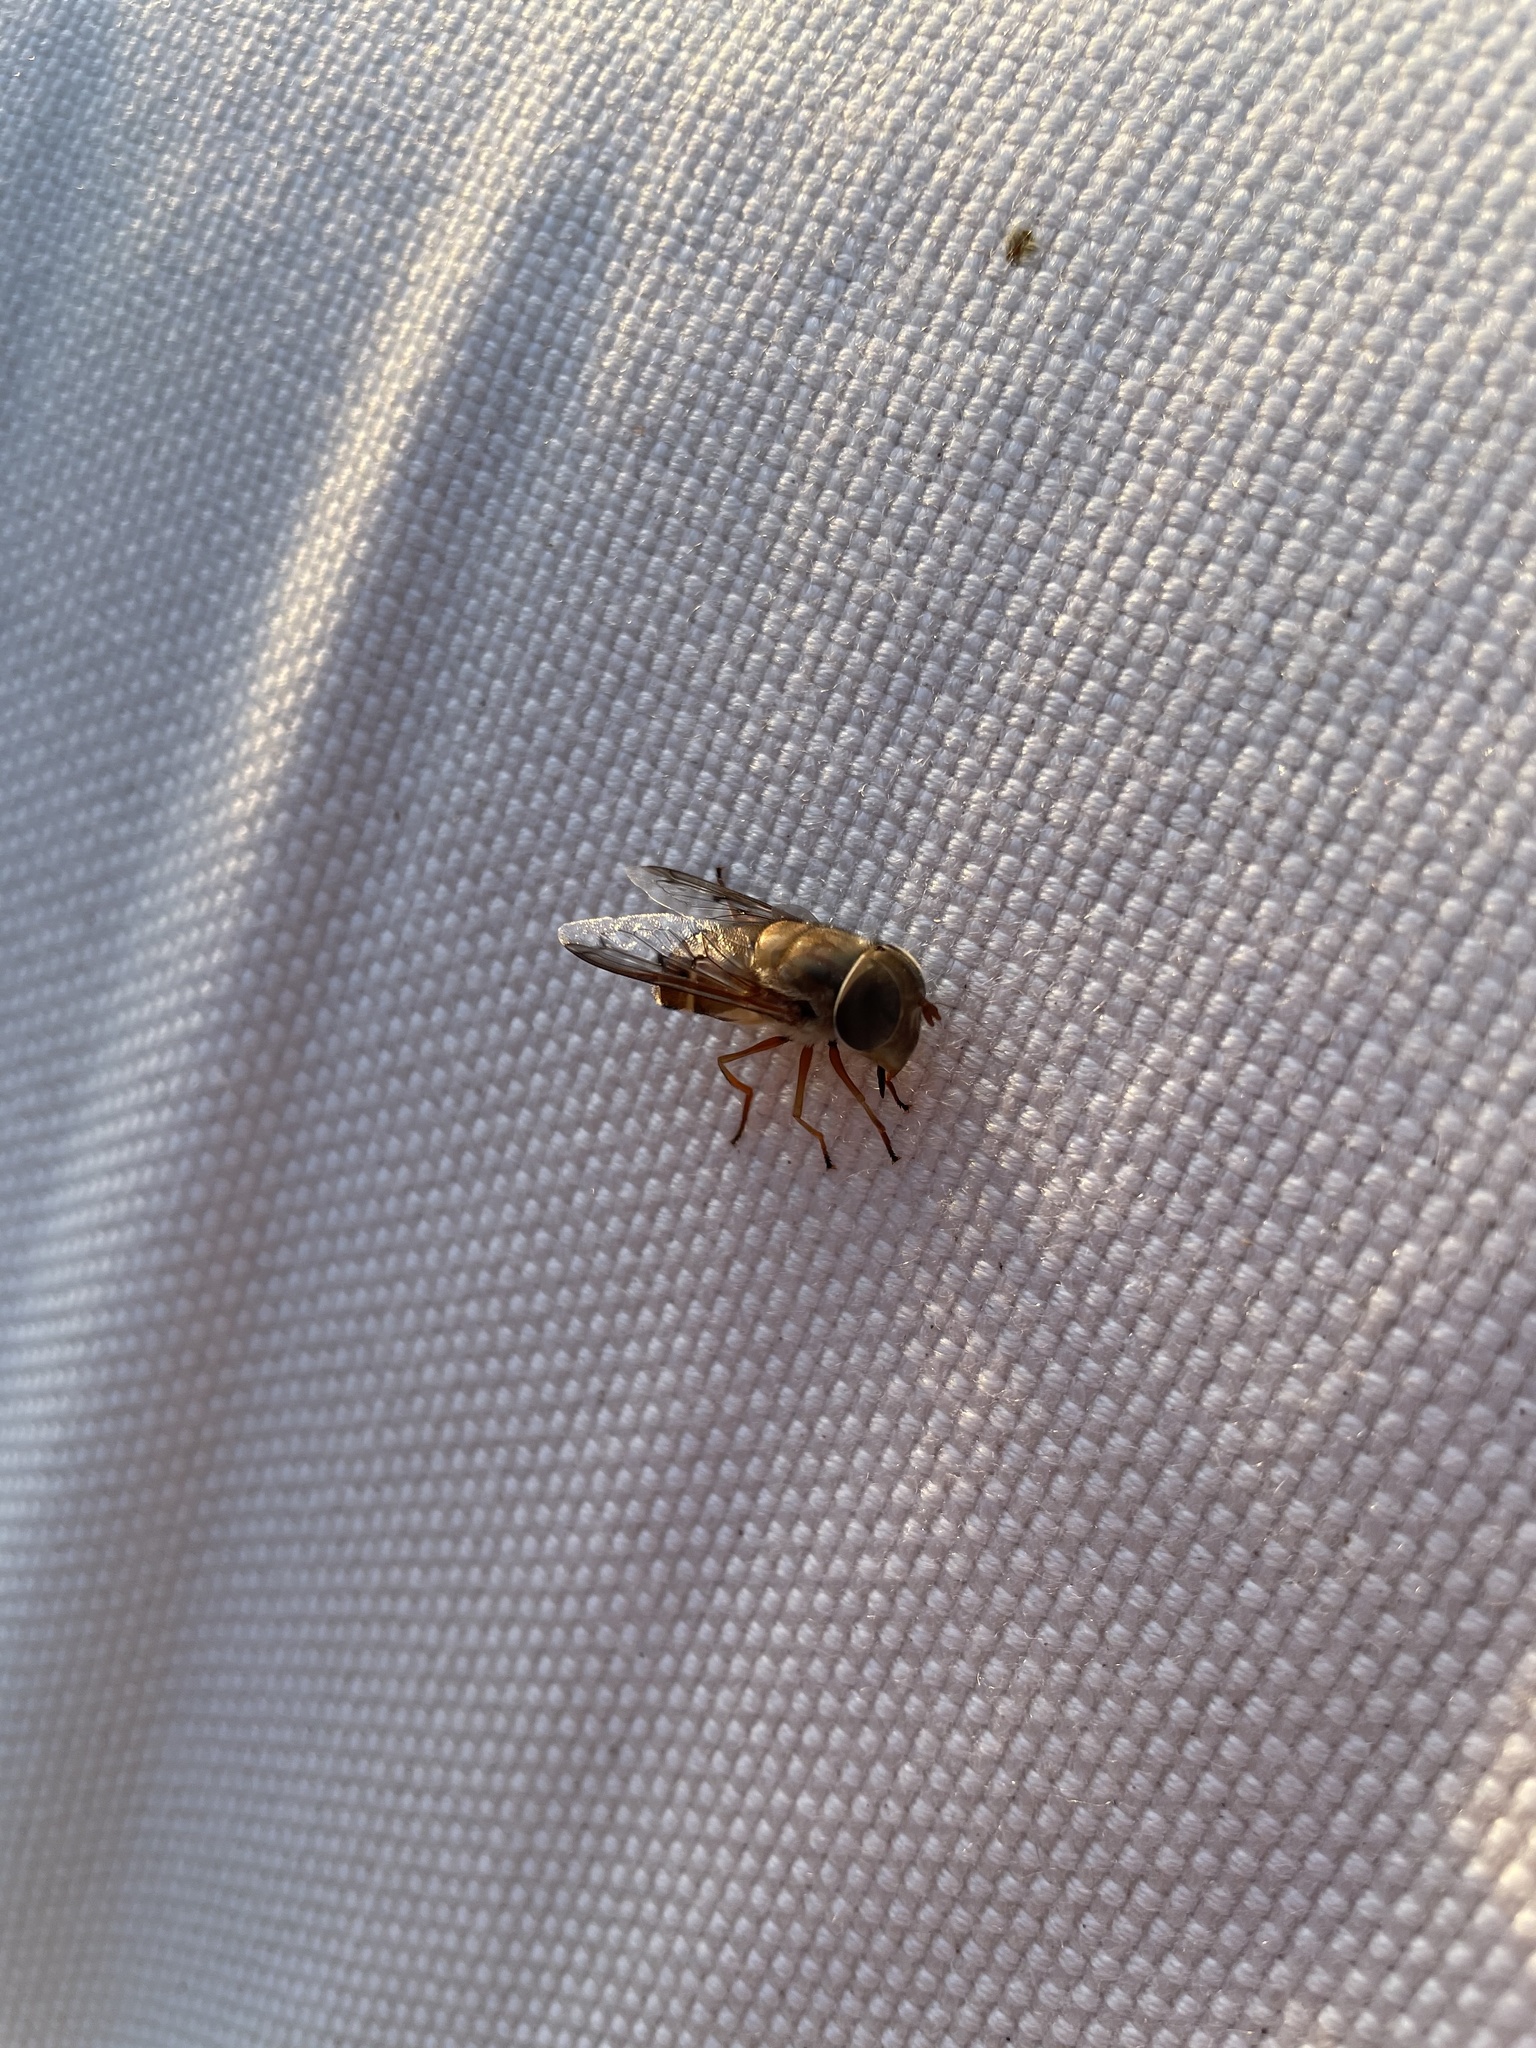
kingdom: Animalia
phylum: Arthropoda
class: Insecta
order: Diptera
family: Syrphidae
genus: Copestylum
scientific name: Copestylum megacephalum
